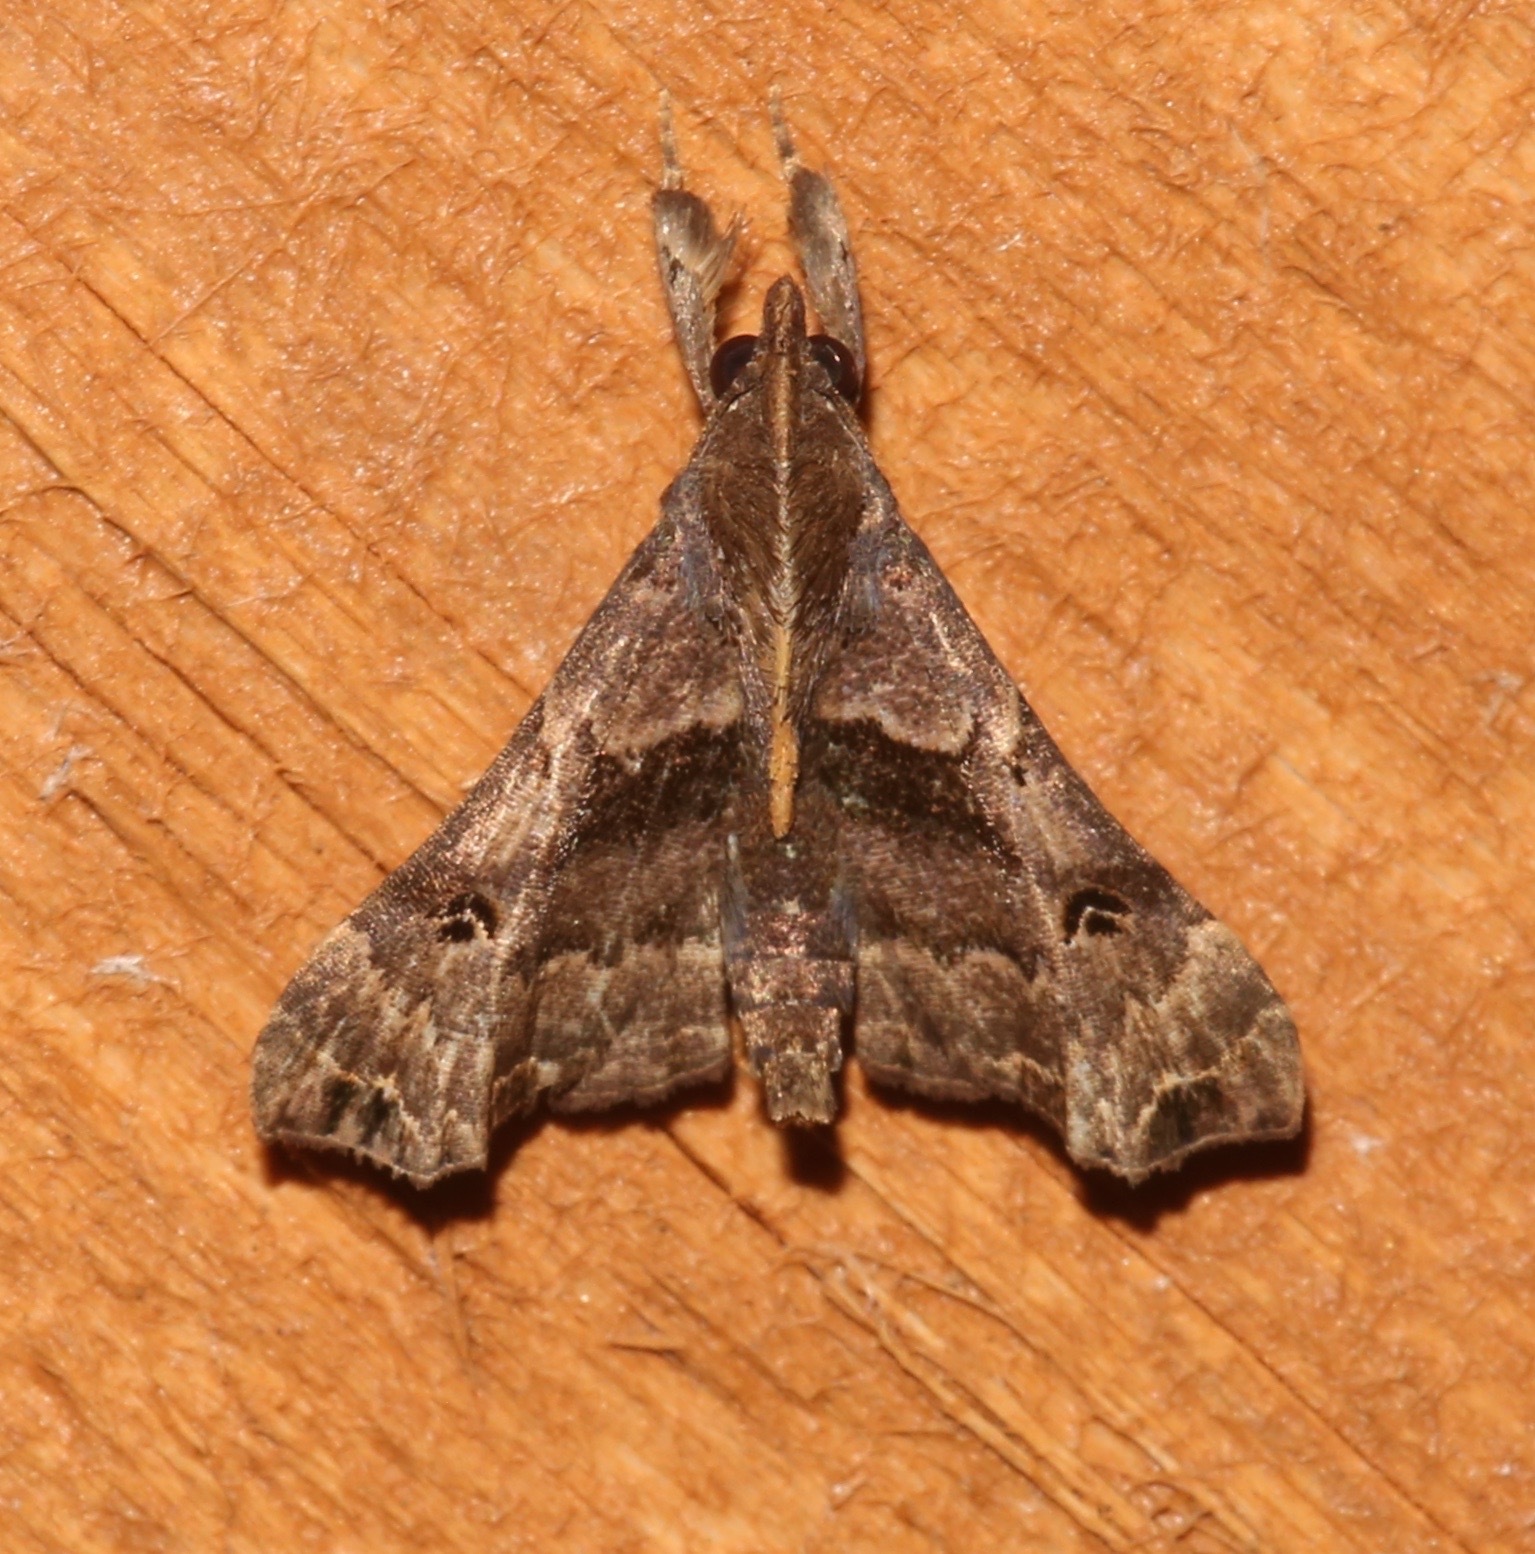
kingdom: Animalia
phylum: Arthropoda
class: Insecta
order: Lepidoptera
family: Erebidae
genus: Palthis
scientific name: Palthis asopialis
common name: Faint-spotted palthis moth
